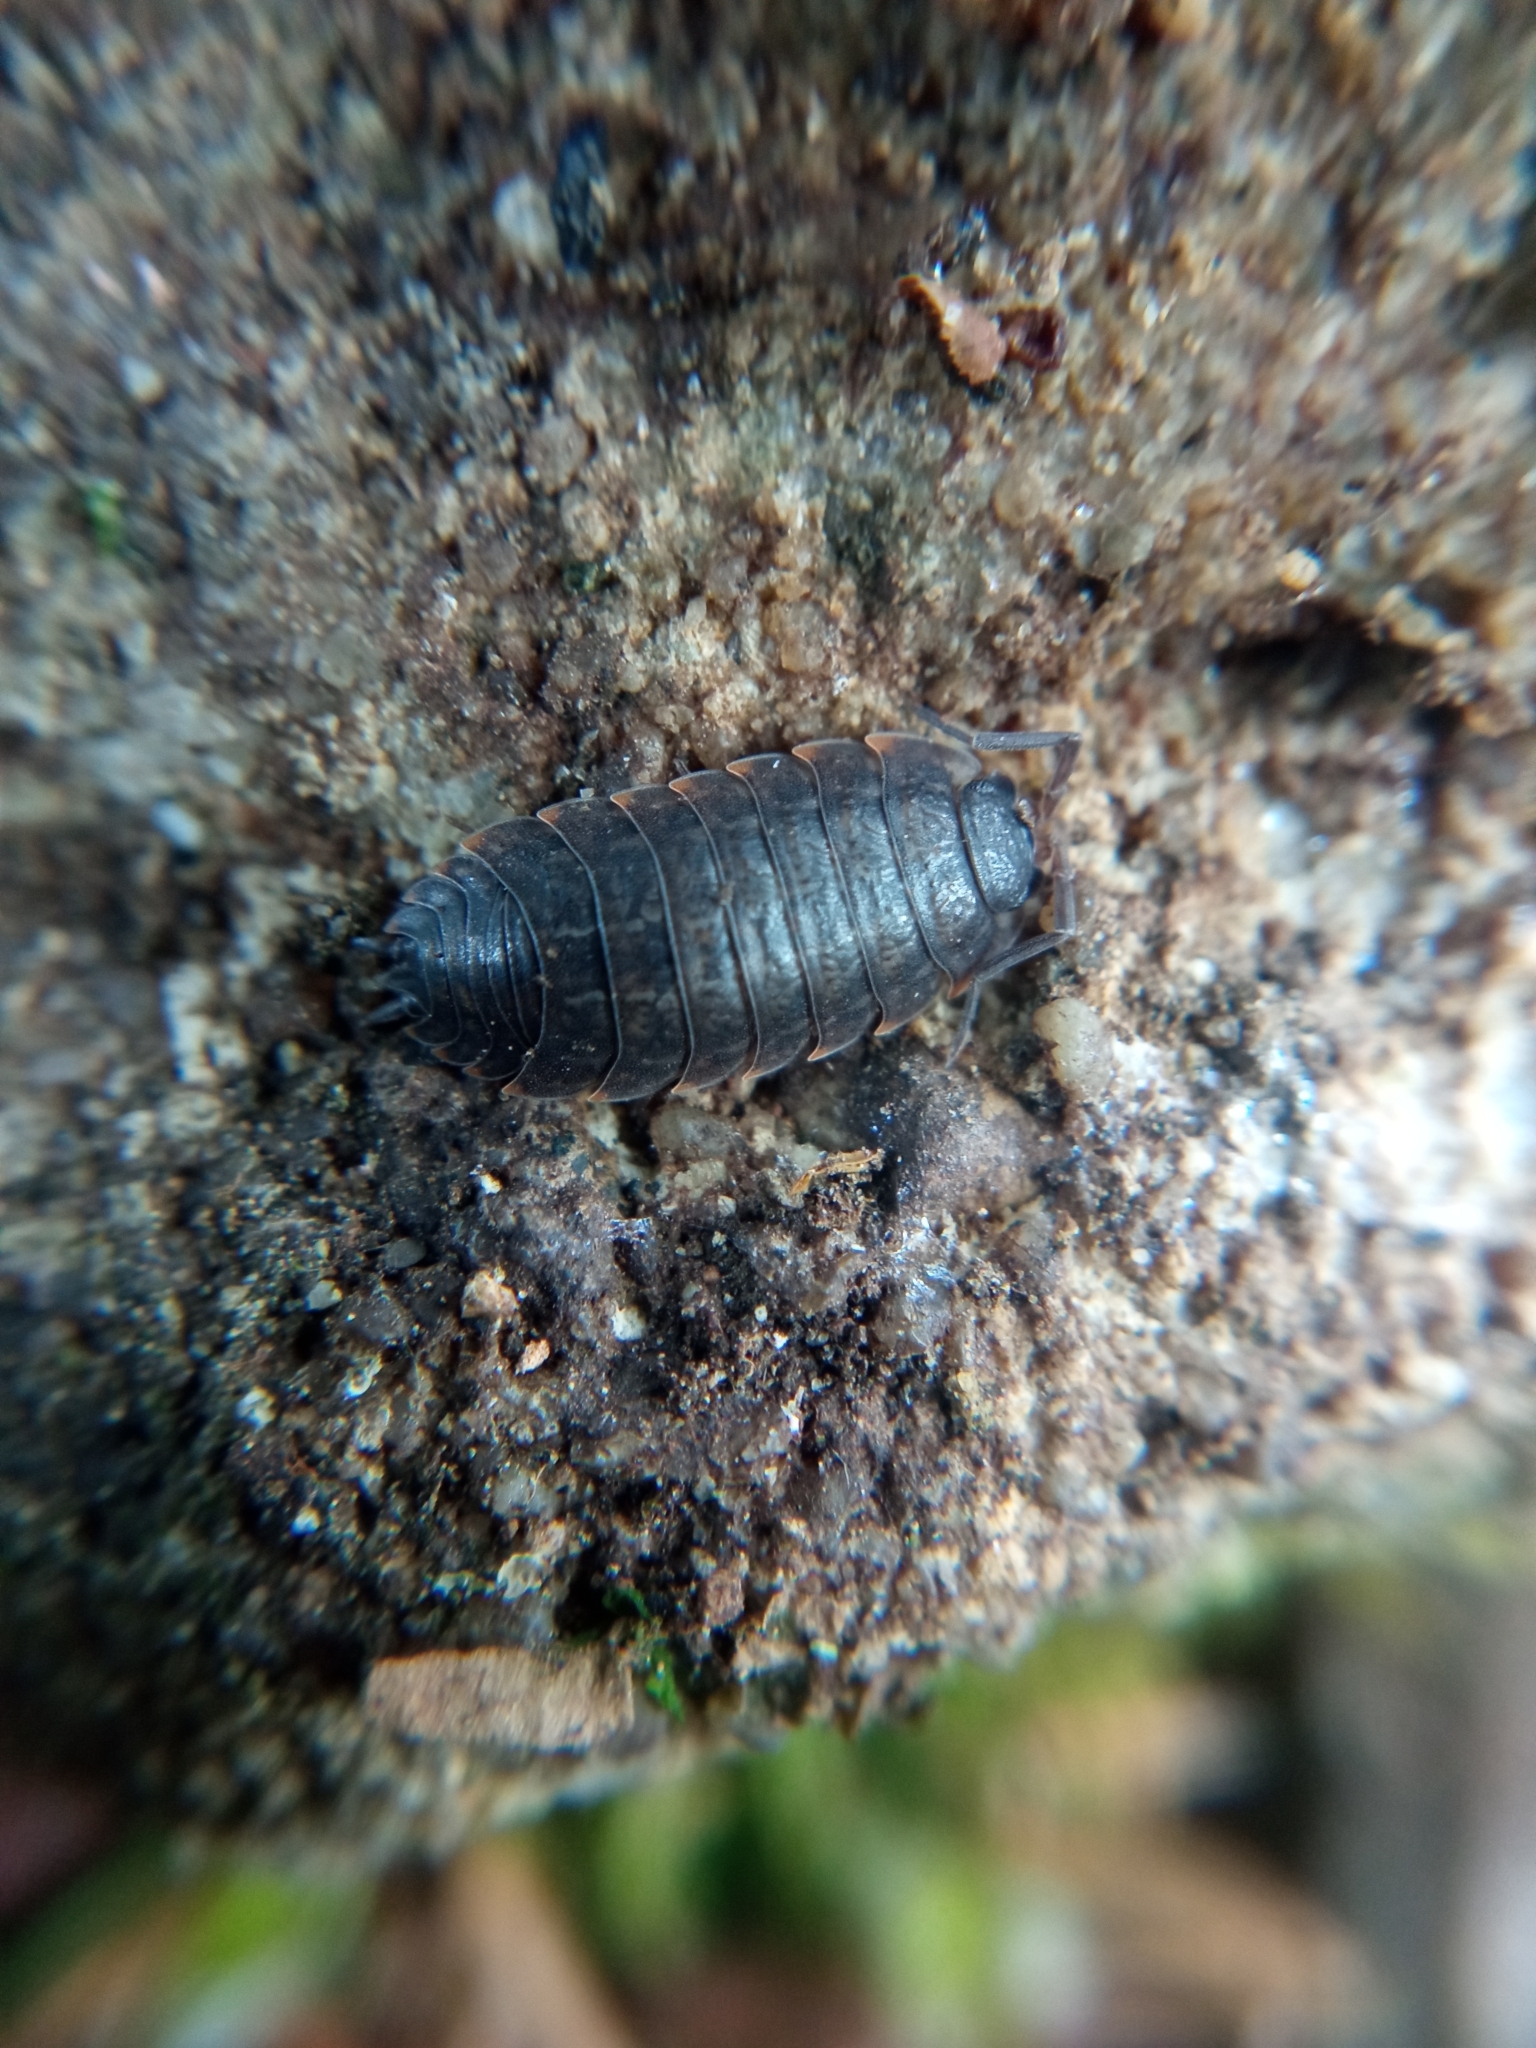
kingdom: Animalia
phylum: Arthropoda
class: Malacostraca
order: Isopoda
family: Porcellionidae
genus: Porcellio
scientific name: Porcellio montanus
